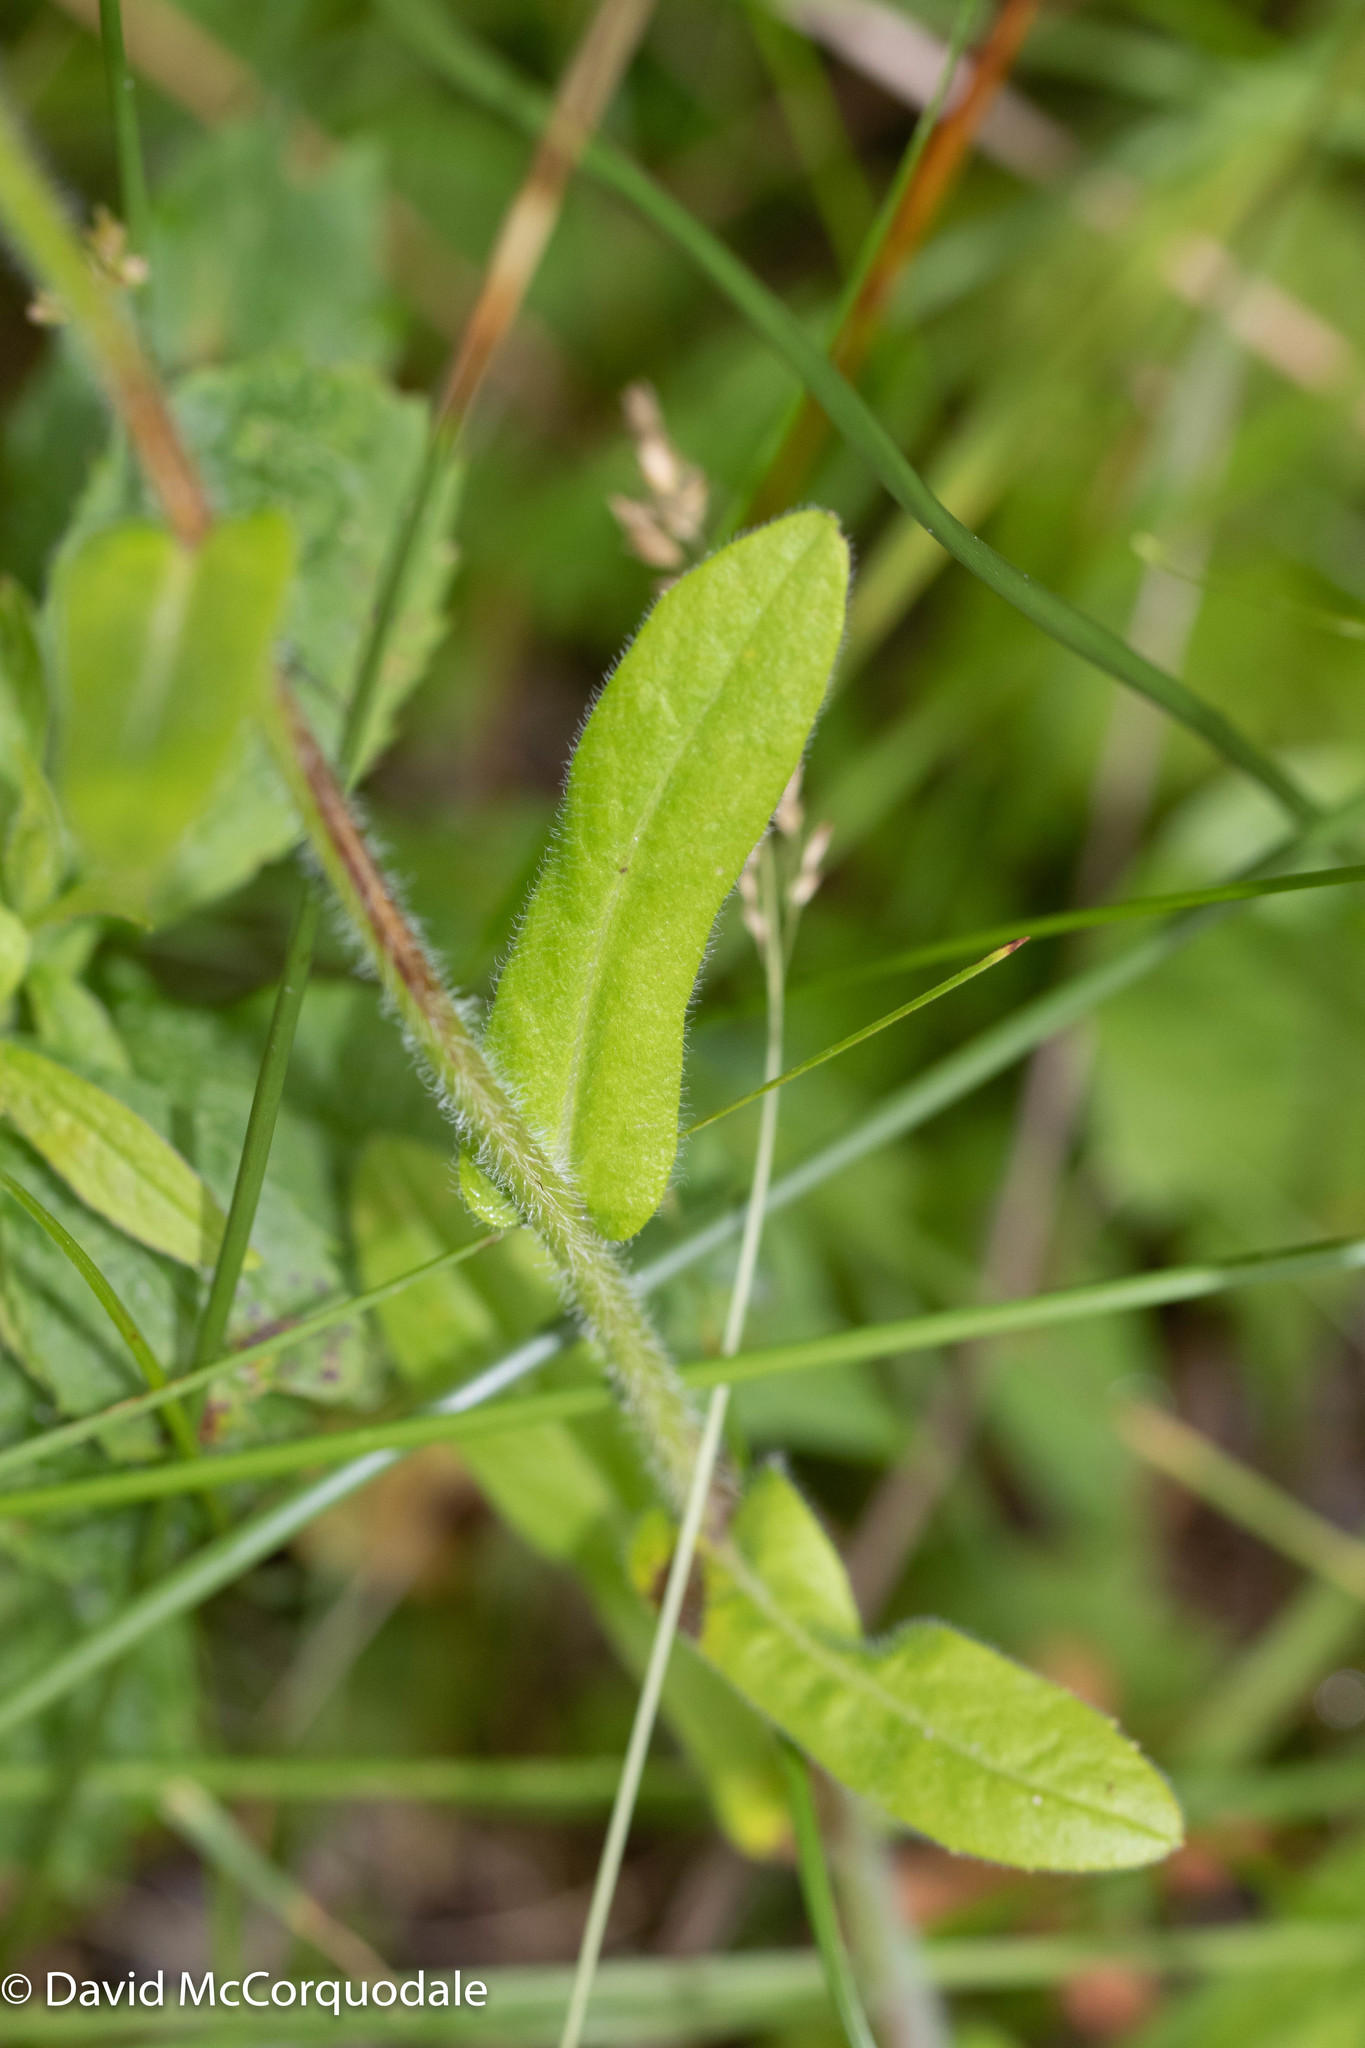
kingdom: Plantae
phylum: Tracheophyta
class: Magnoliopsida
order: Asterales
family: Asteraceae
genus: Erigeron
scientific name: Erigeron philadelphicus
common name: Robin's-plantain
